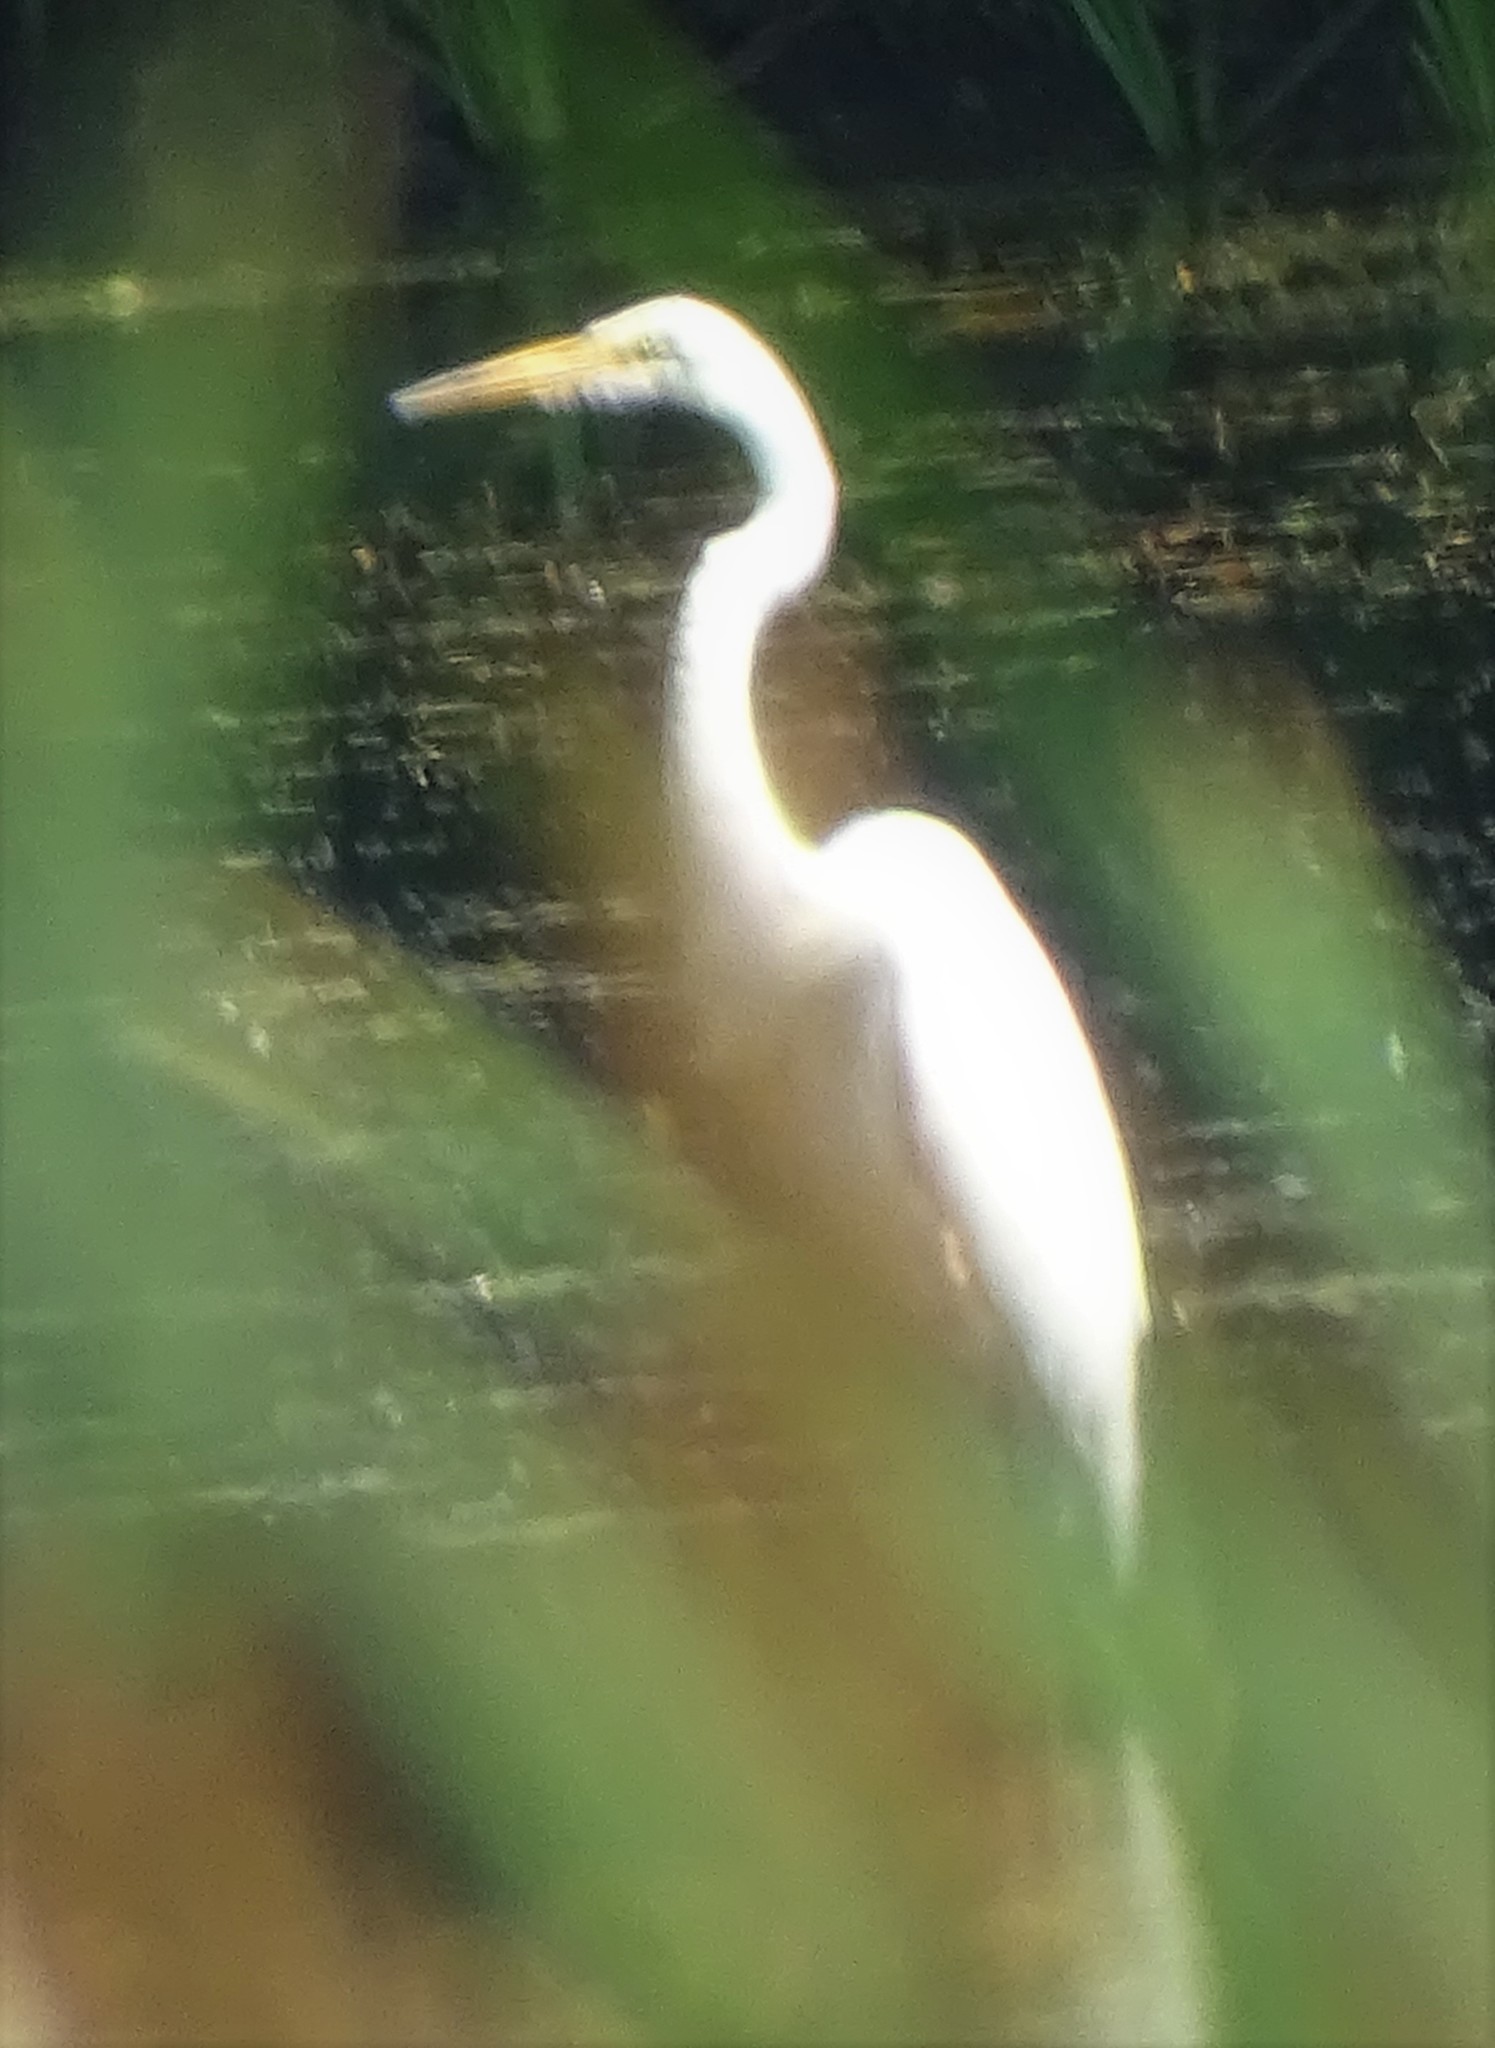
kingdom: Animalia
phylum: Chordata
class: Aves
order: Pelecaniformes
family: Ardeidae
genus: Ardea
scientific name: Ardea alba
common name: Great egret
